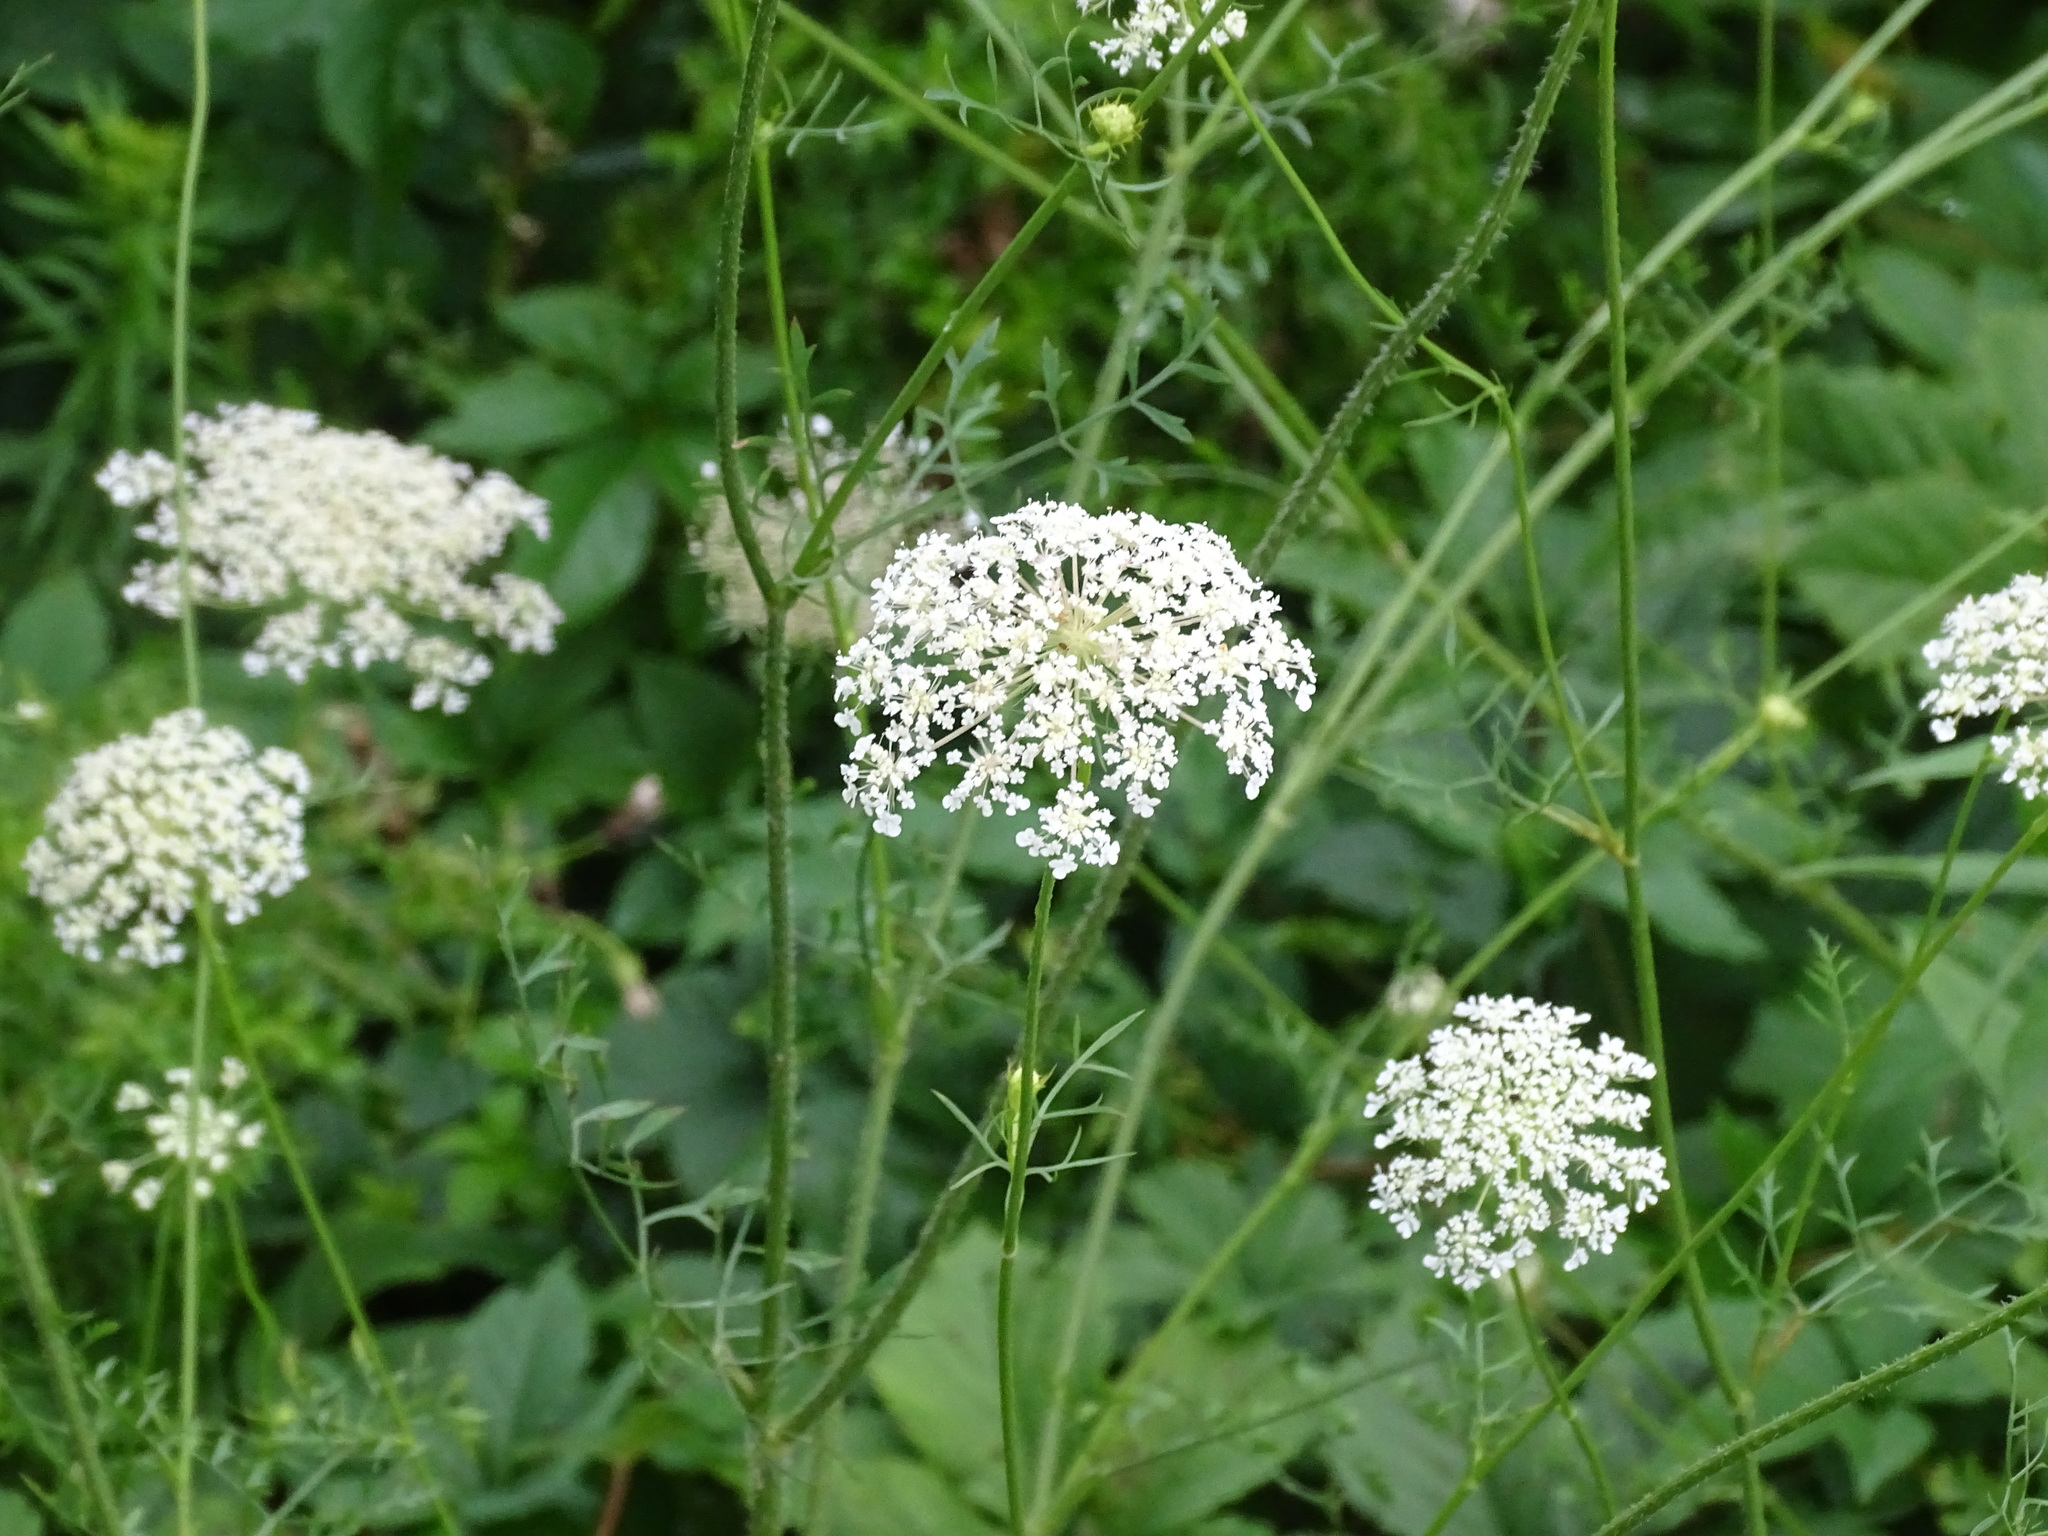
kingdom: Plantae
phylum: Tracheophyta
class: Magnoliopsida
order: Apiales
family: Apiaceae
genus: Daucus
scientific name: Daucus carota
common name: Wild carrot
